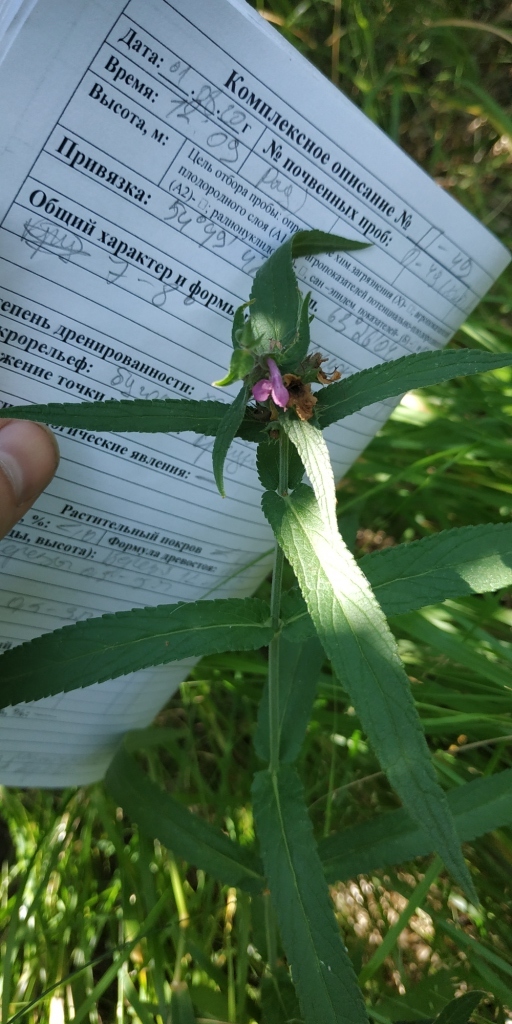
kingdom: Plantae
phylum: Tracheophyta
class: Magnoliopsida
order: Lamiales
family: Lamiaceae
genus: Stachys
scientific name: Stachys palustris
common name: Marsh woundwort
